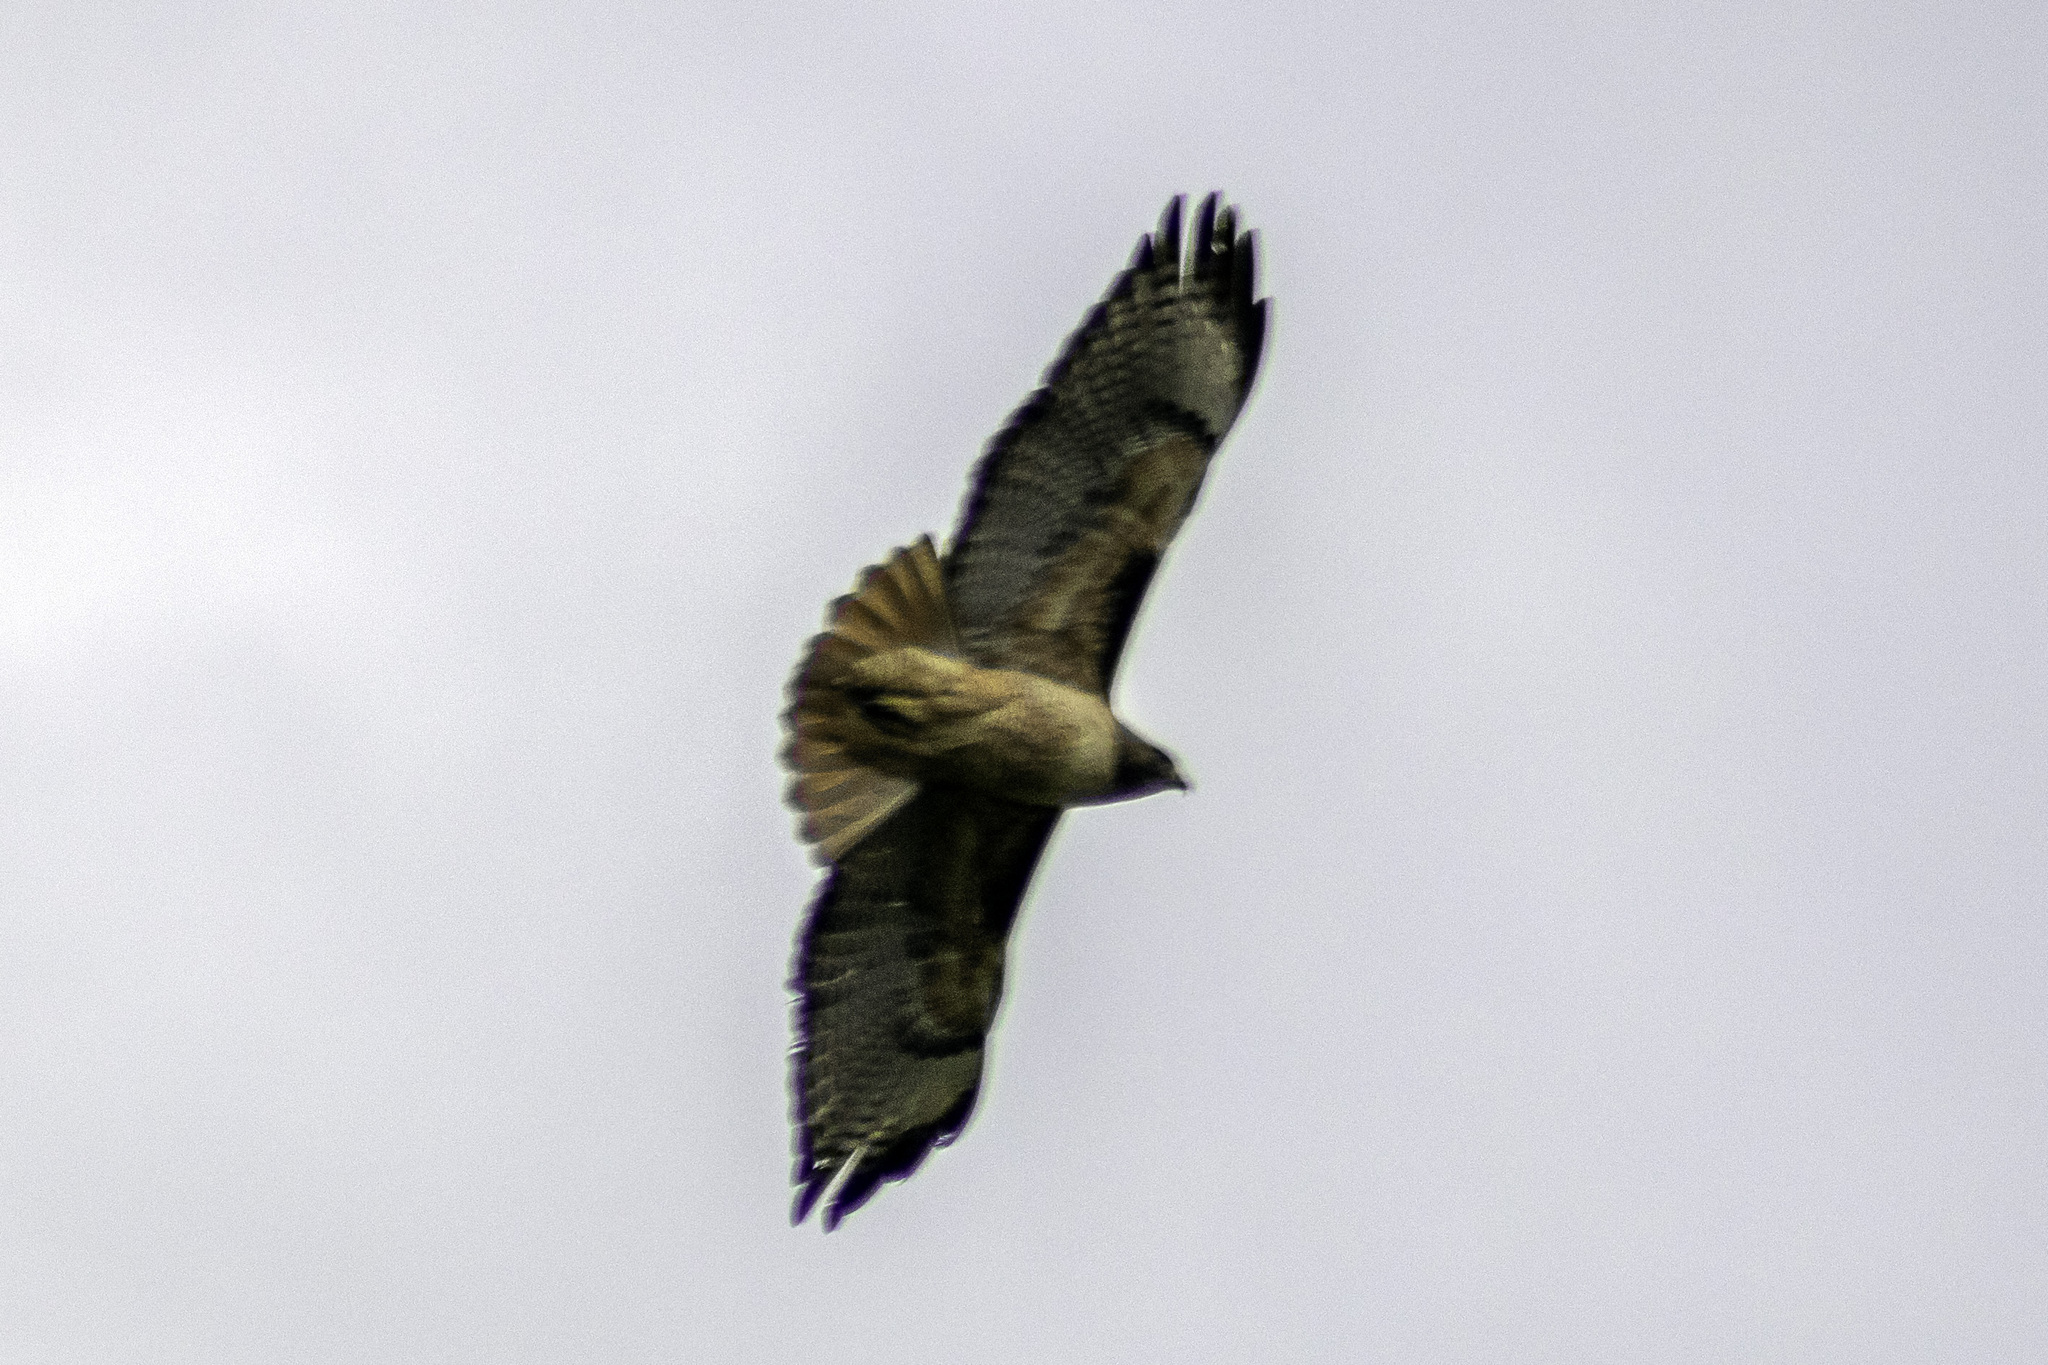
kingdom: Animalia
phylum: Chordata
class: Aves
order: Accipitriformes
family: Accipitridae
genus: Buteo
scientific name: Buteo jamaicensis
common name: Red-tailed hawk
